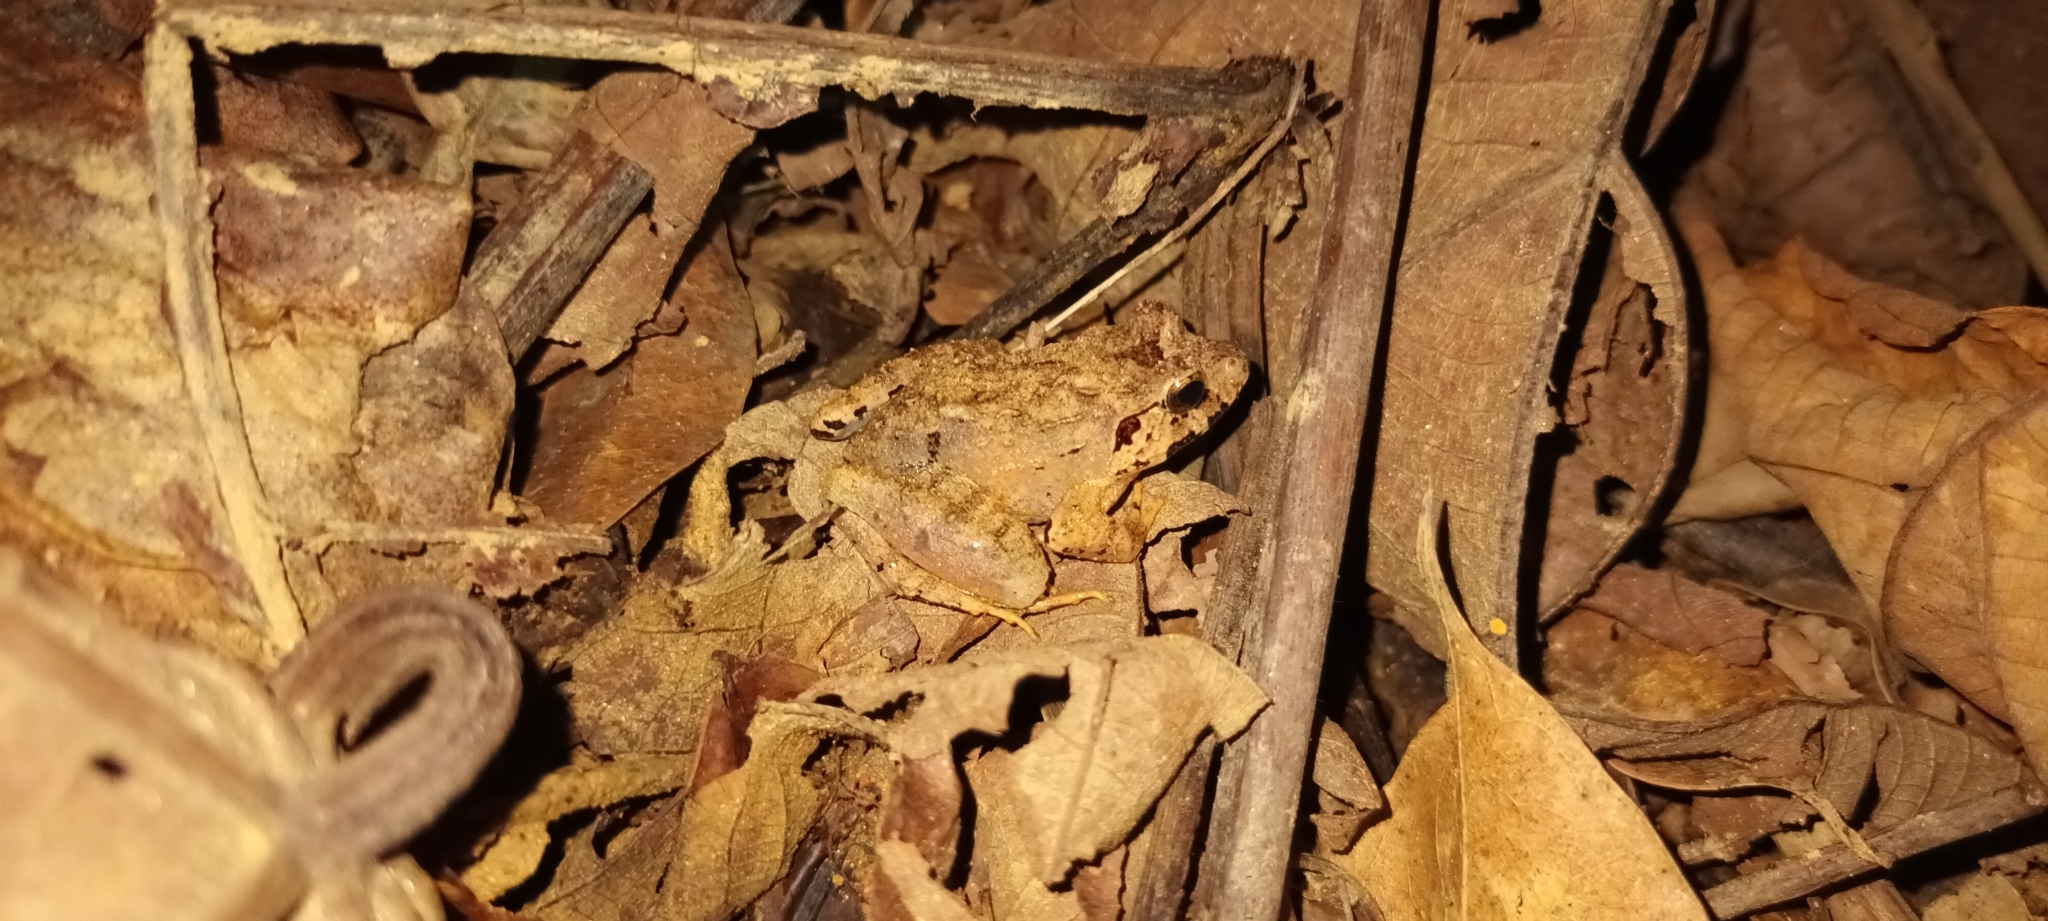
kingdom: Animalia
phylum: Chordata
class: Amphibia
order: Anura
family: Dicroglossidae
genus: Limnonectes
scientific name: Limnonectes malesianus
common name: Peat swamp frog/malaysian frog
